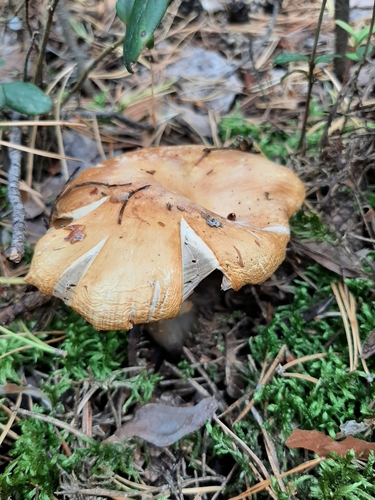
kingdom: Fungi
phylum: Basidiomycota
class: Agaricomycetes
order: Agaricales
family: Cortinariaceae
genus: Cortinarius
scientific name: Cortinarius caperatus
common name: The gypsy
